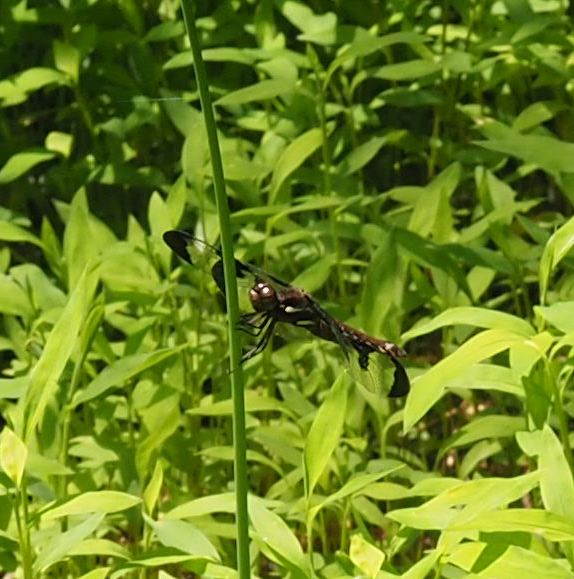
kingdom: Animalia
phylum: Arthropoda
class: Insecta
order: Odonata
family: Libellulidae
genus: Plathemis
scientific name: Plathemis lydia
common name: Common whitetail
